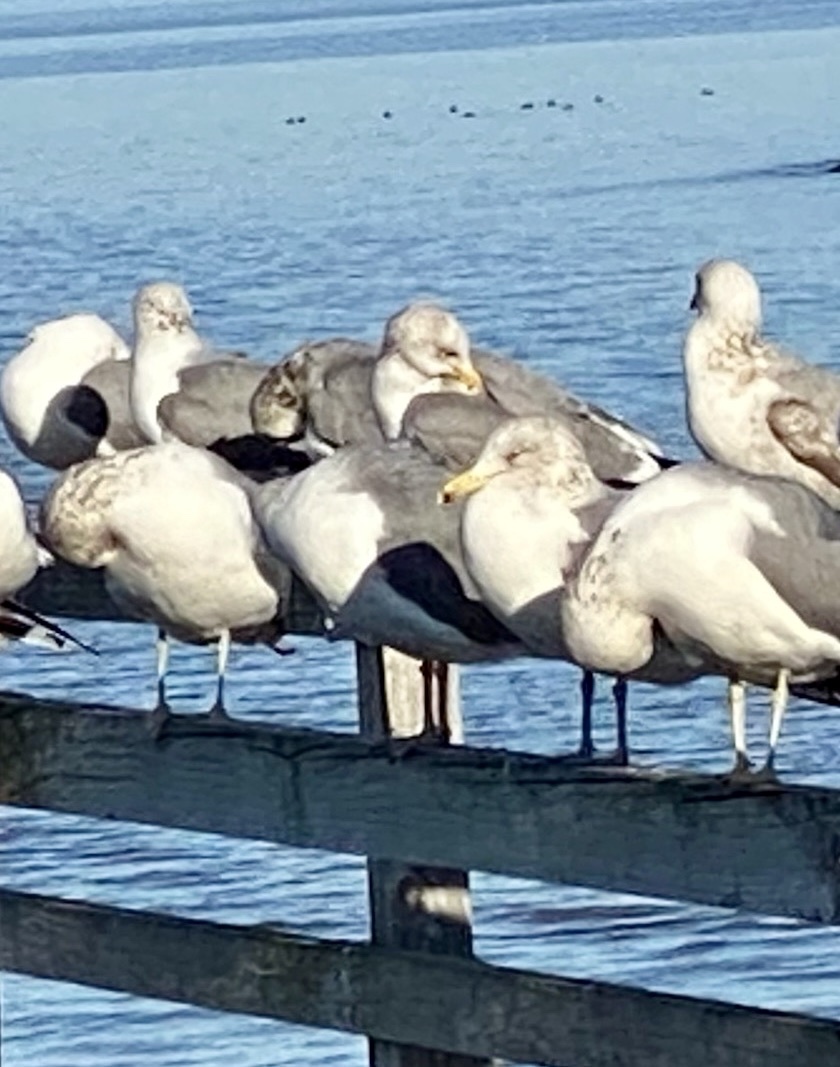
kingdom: Animalia
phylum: Chordata
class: Aves
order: Charadriiformes
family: Laridae
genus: Larus
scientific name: Larus californicus
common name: California gull
